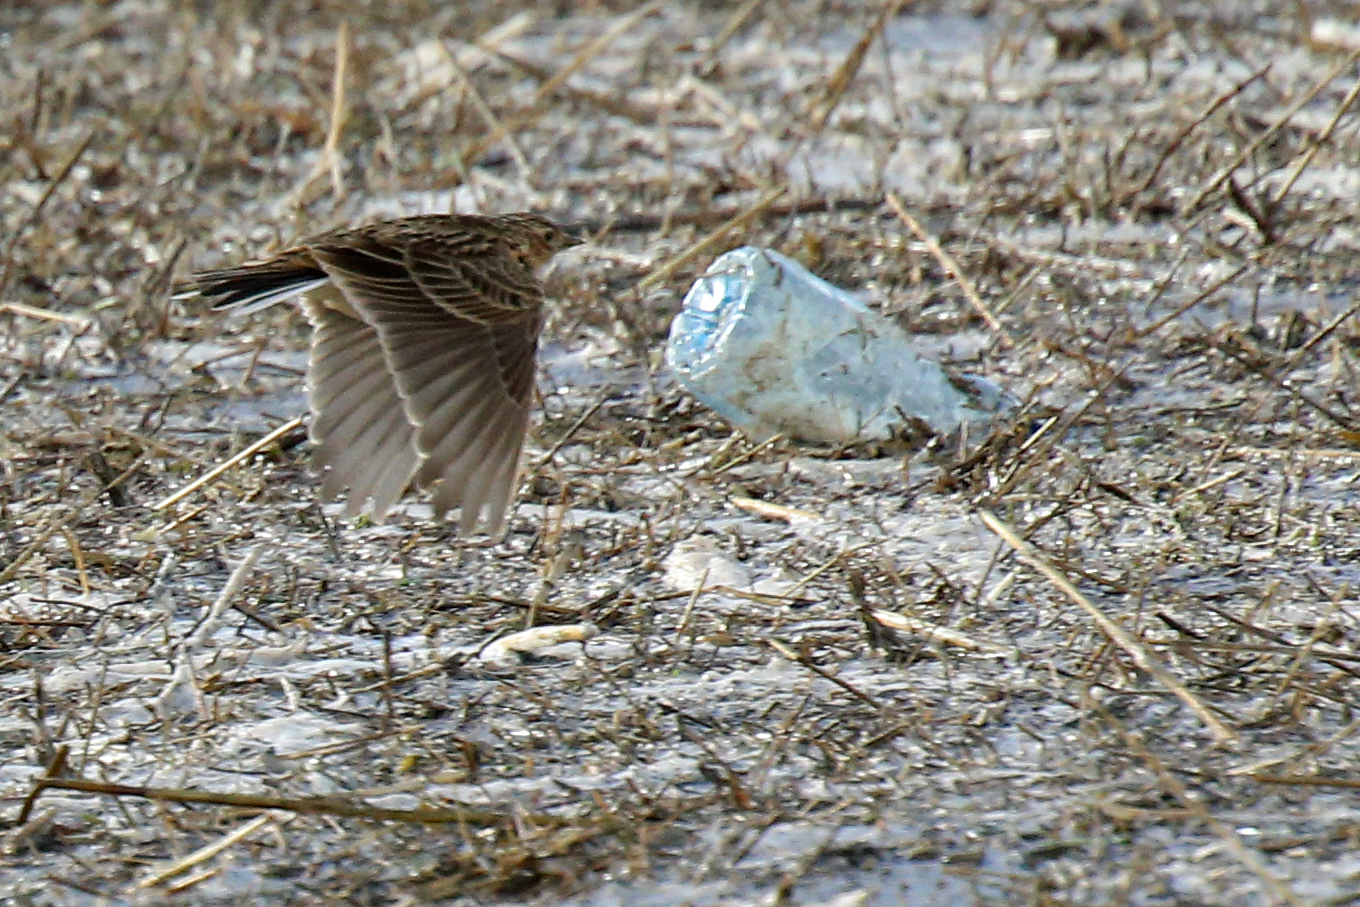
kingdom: Animalia
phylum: Chordata
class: Aves
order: Passeriformes
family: Alaudidae
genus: Alauda
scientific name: Alauda arvensis
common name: Eurasian skylark
